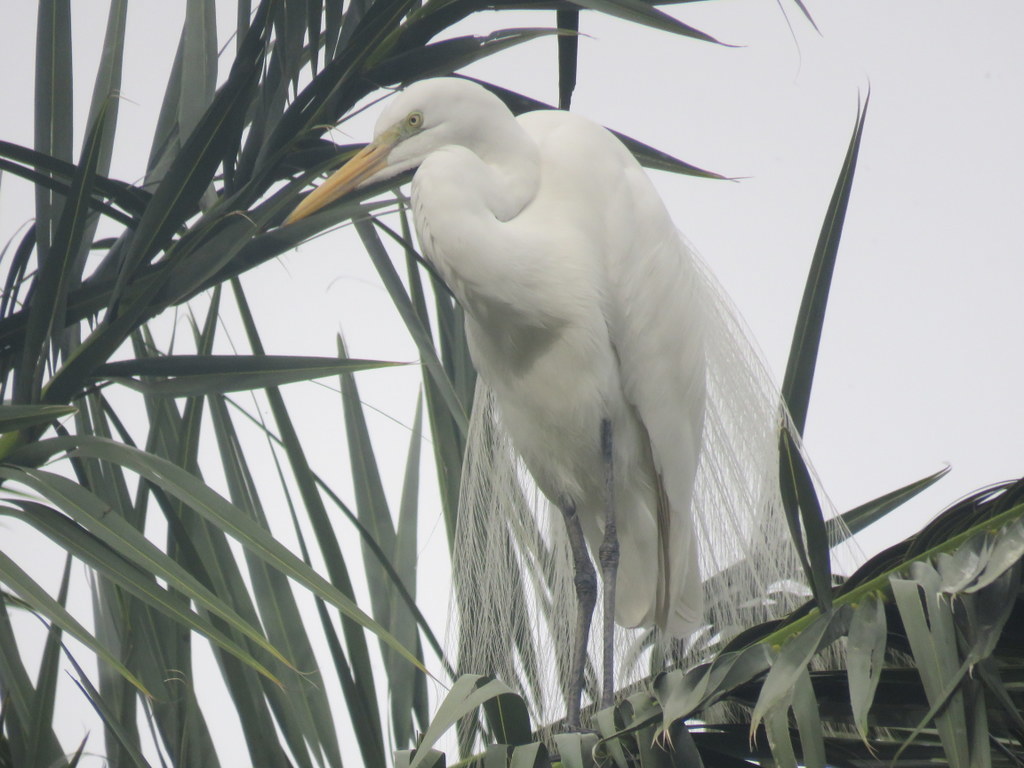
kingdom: Animalia
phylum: Chordata
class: Aves
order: Pelecaniformes
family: Ardeidae
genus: Ardea
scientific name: Ardea alba
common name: Great egret
